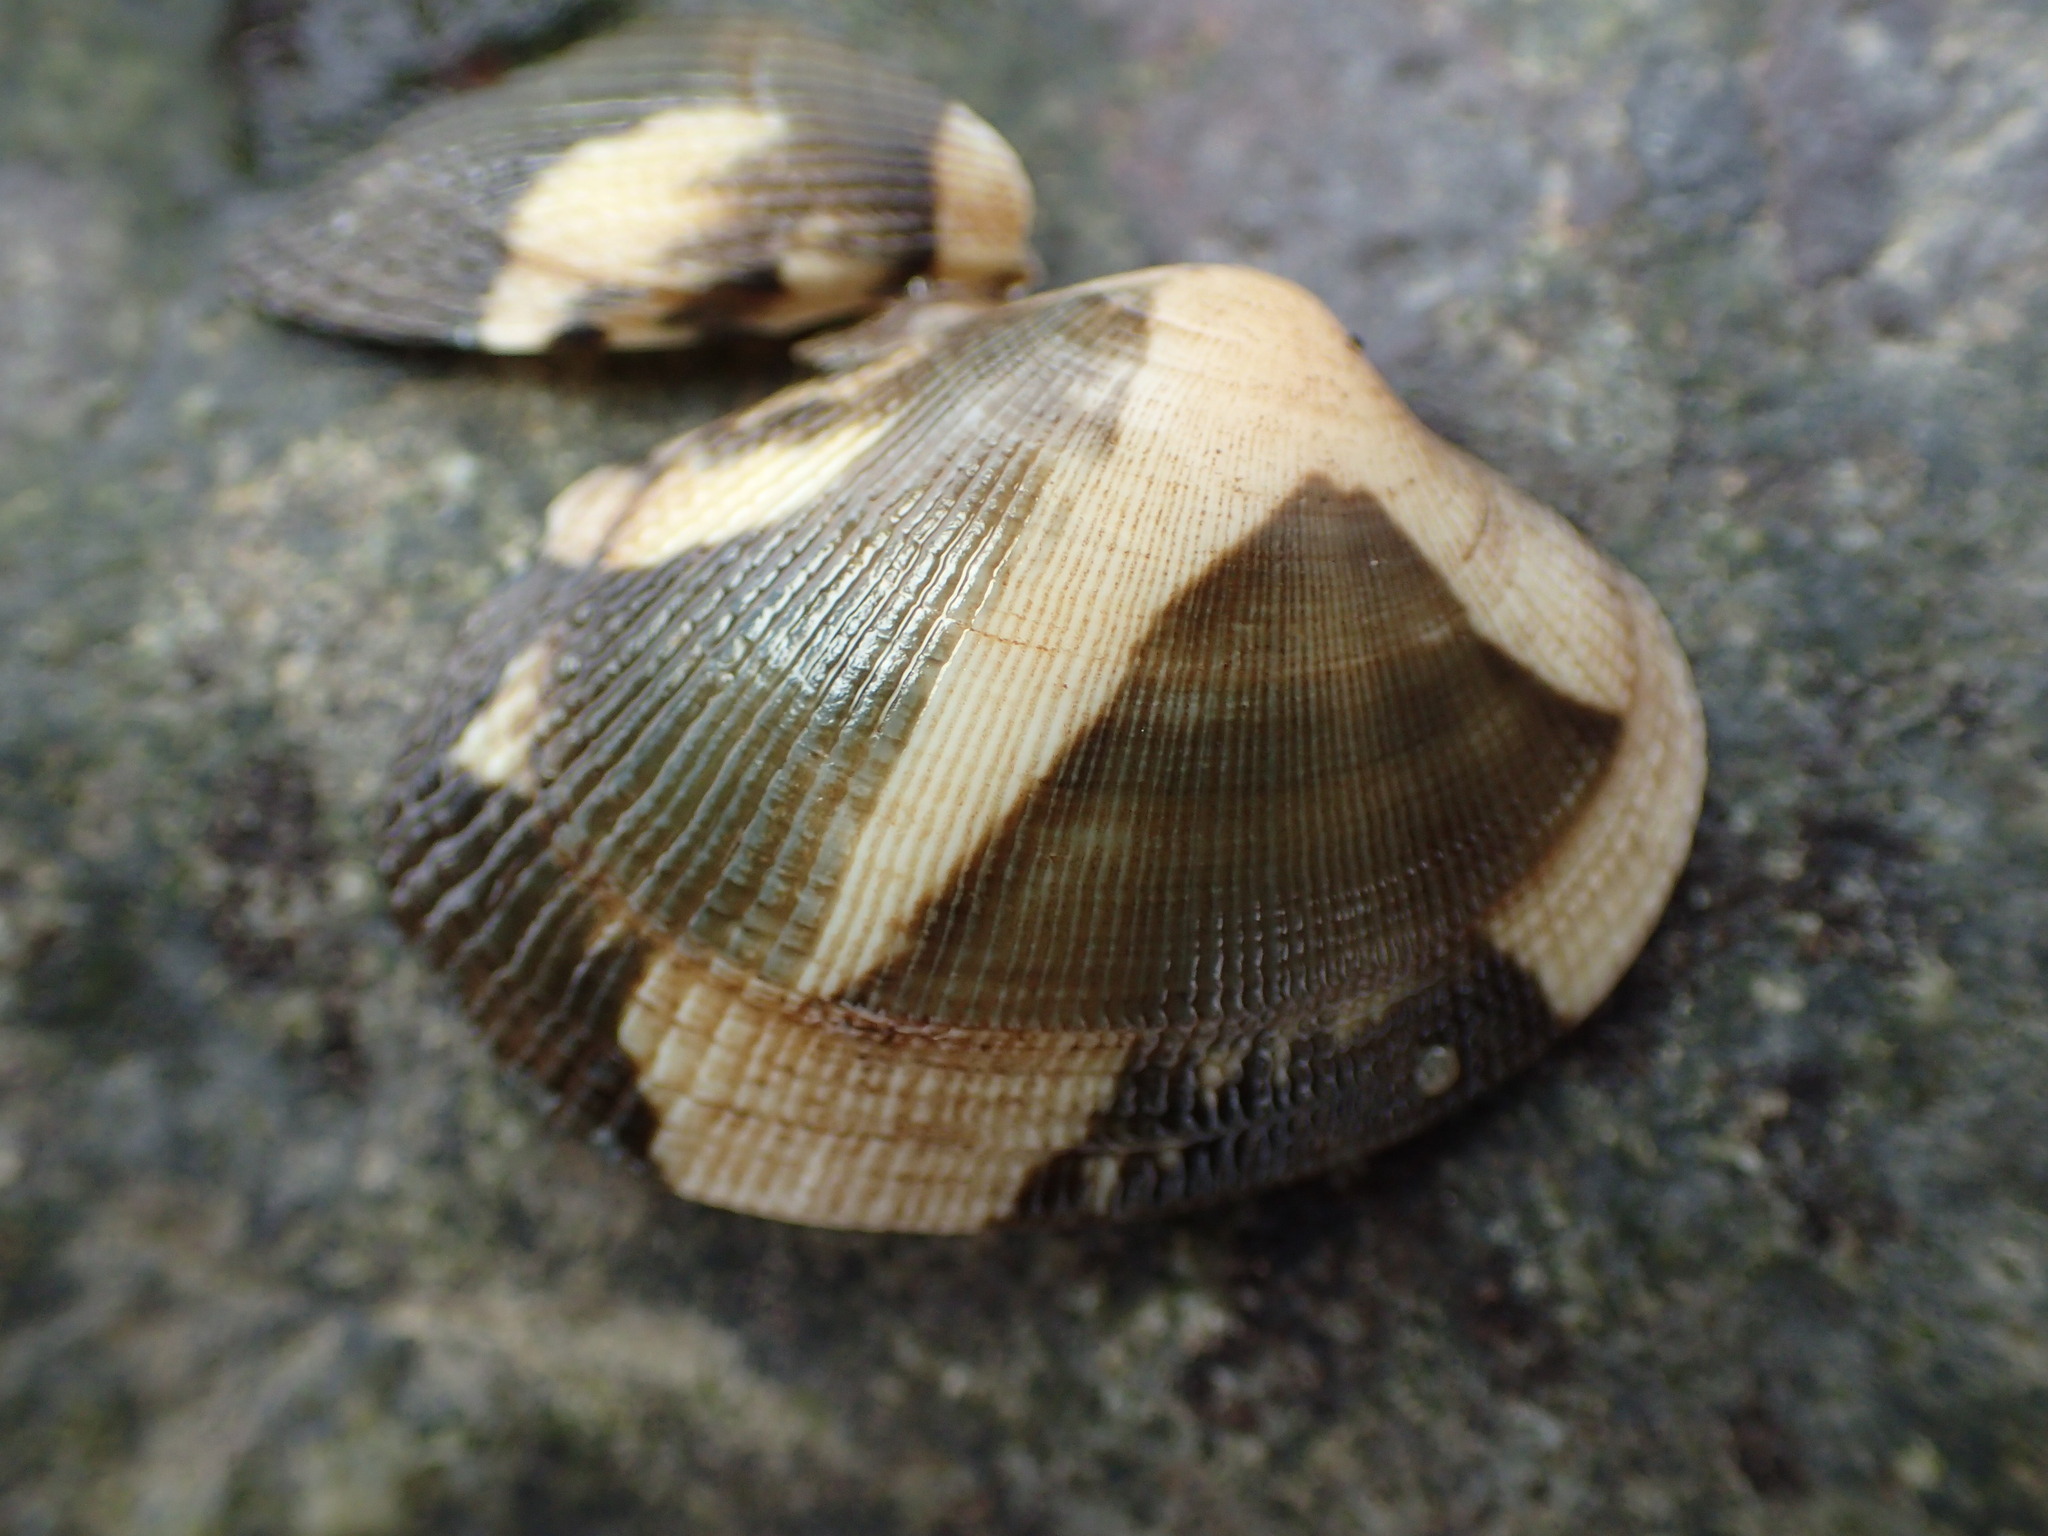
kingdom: Animalia
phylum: Mollusca
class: Bivalvia
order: Venerida
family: Veneridae
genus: Ruditapes
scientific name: Ruditapes philippinarum
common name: Manila clam
